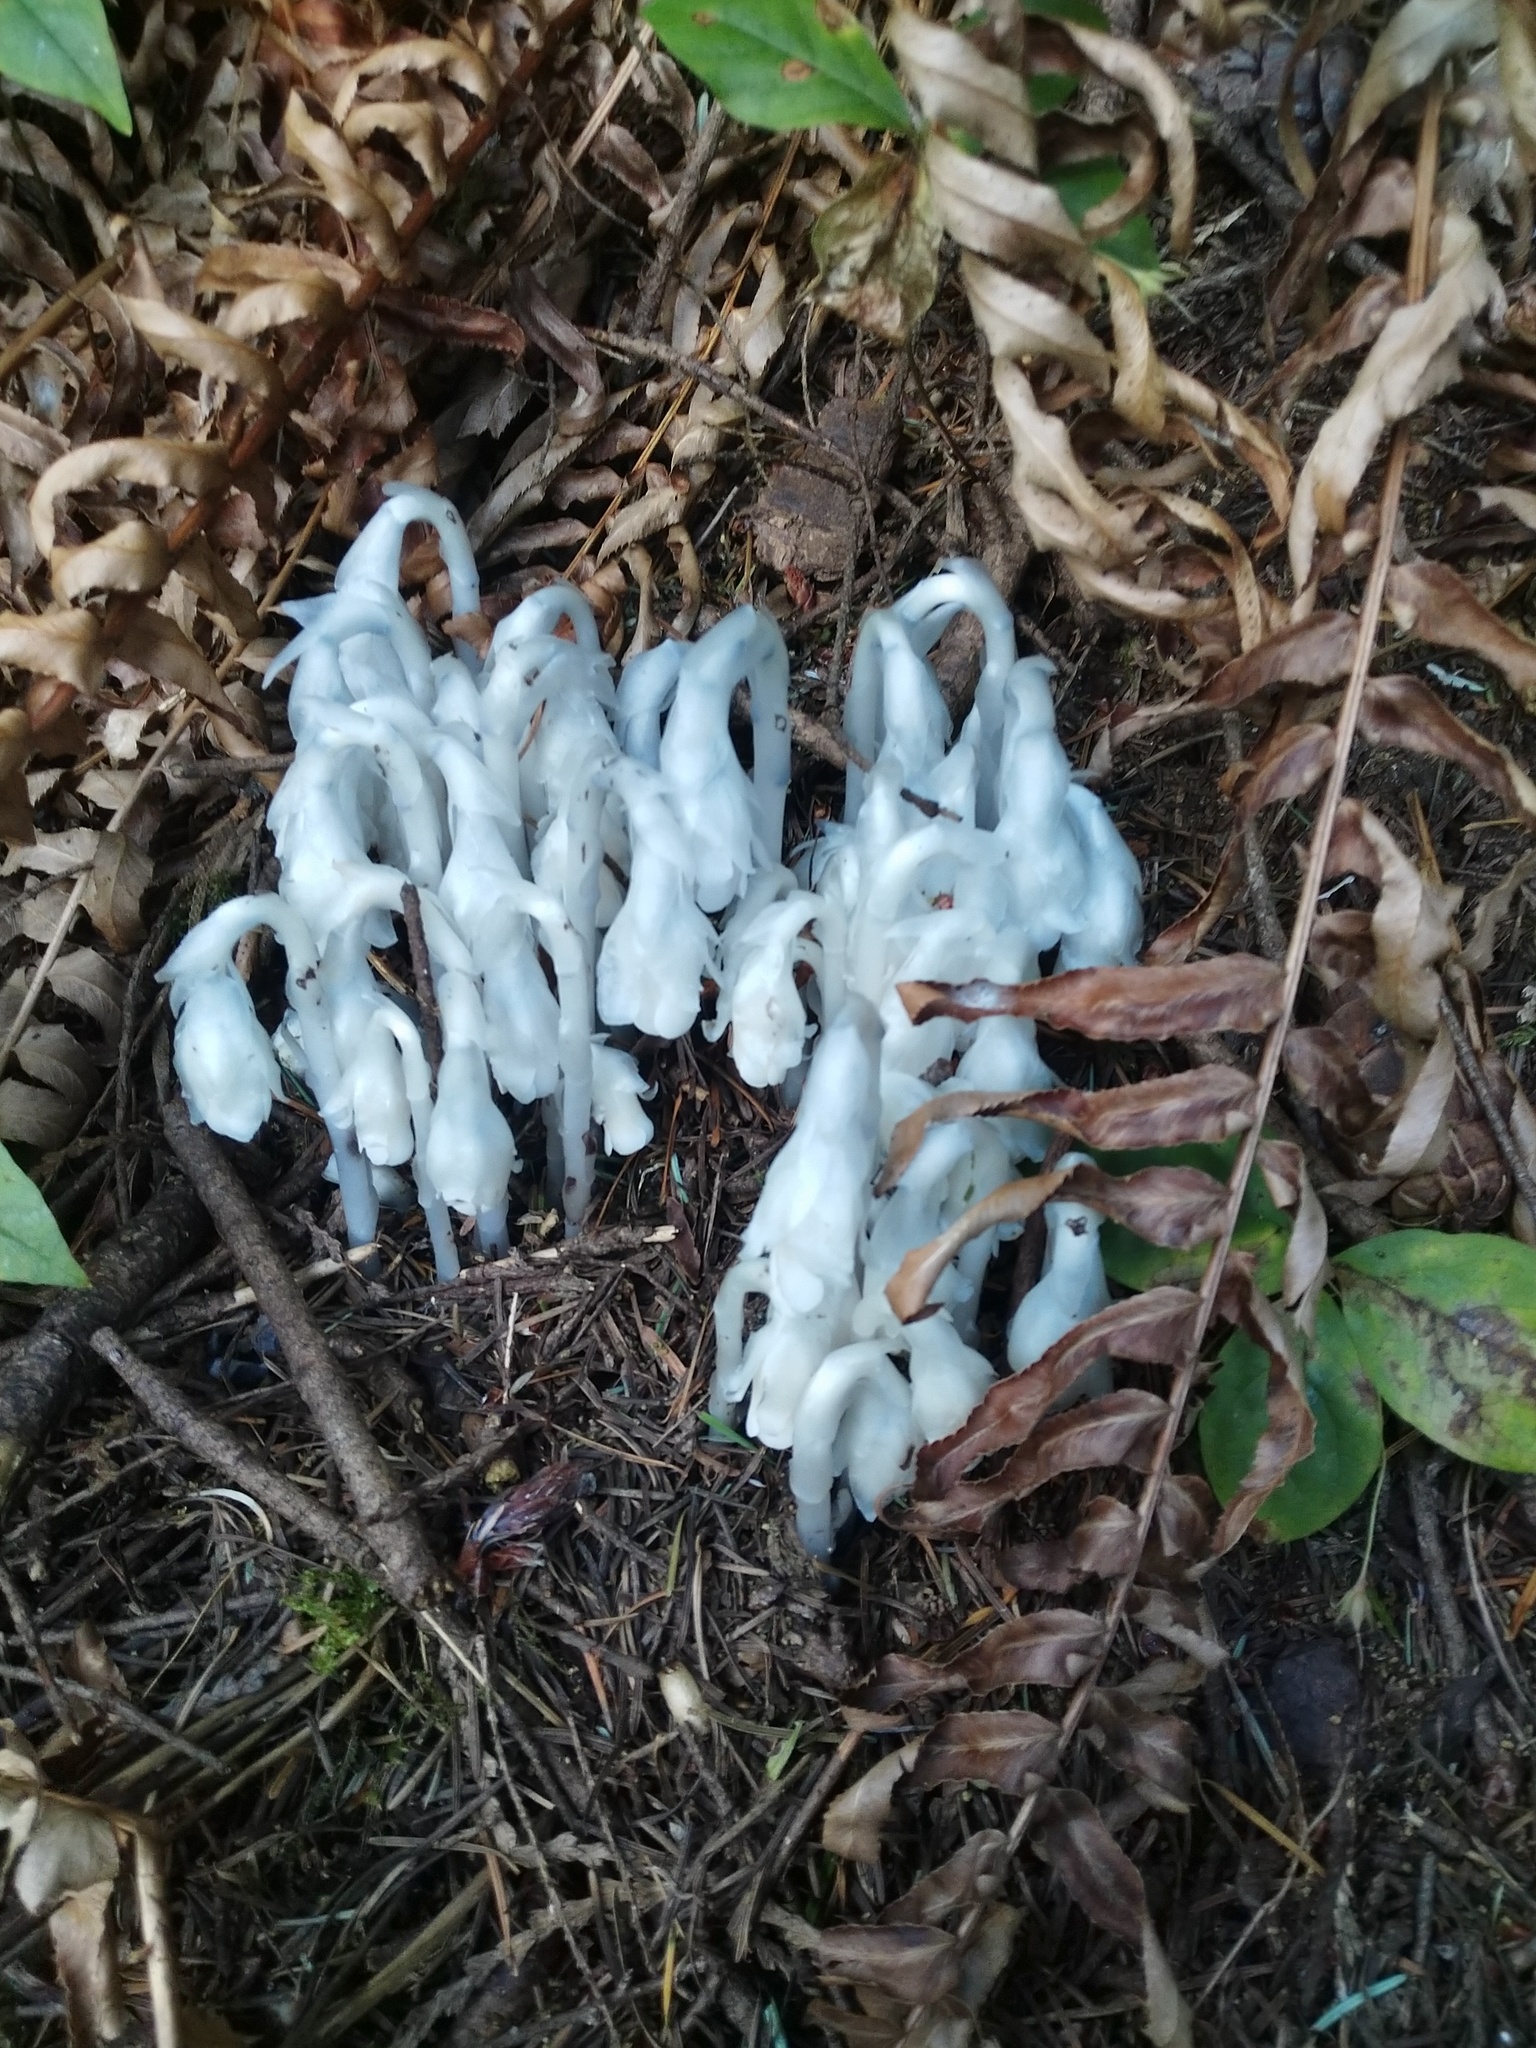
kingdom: Plantae
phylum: Tracheophyta
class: Magnoliopsida
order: Ericales
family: Ericaceae
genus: Monotropa
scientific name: Monotropa uniflora
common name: Convulsion root
